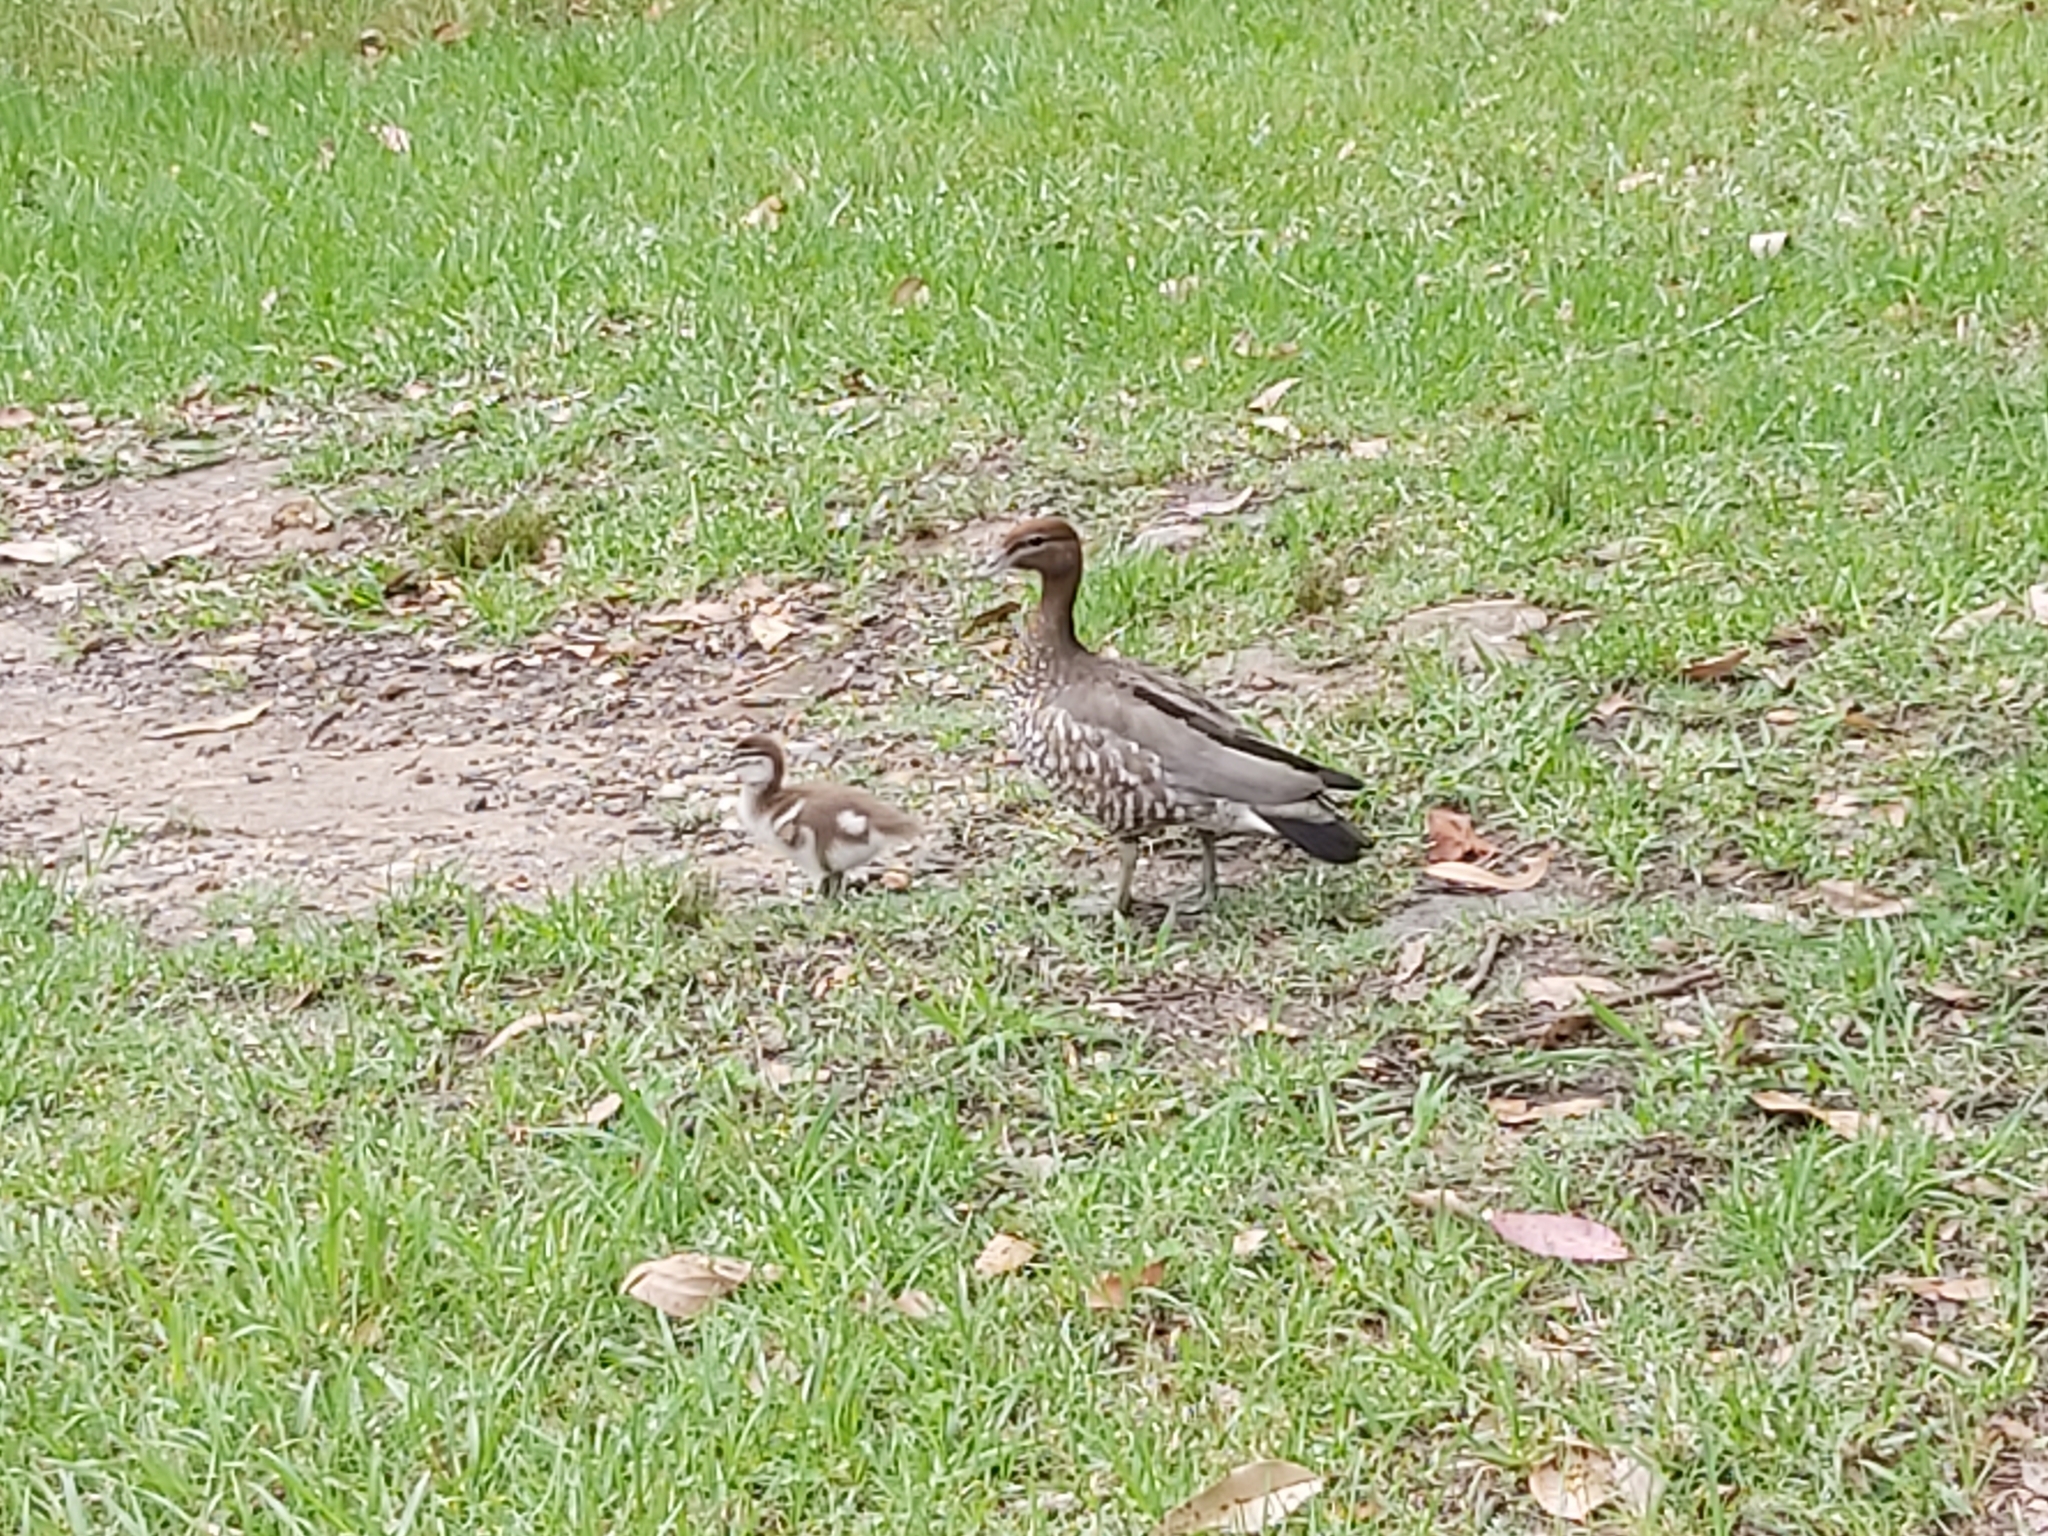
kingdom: Animalia
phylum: Chordata
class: Aves
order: Anseriformes
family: Anatidae
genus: Chenonetta
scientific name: Chenonetta jubata
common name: Maned duck
